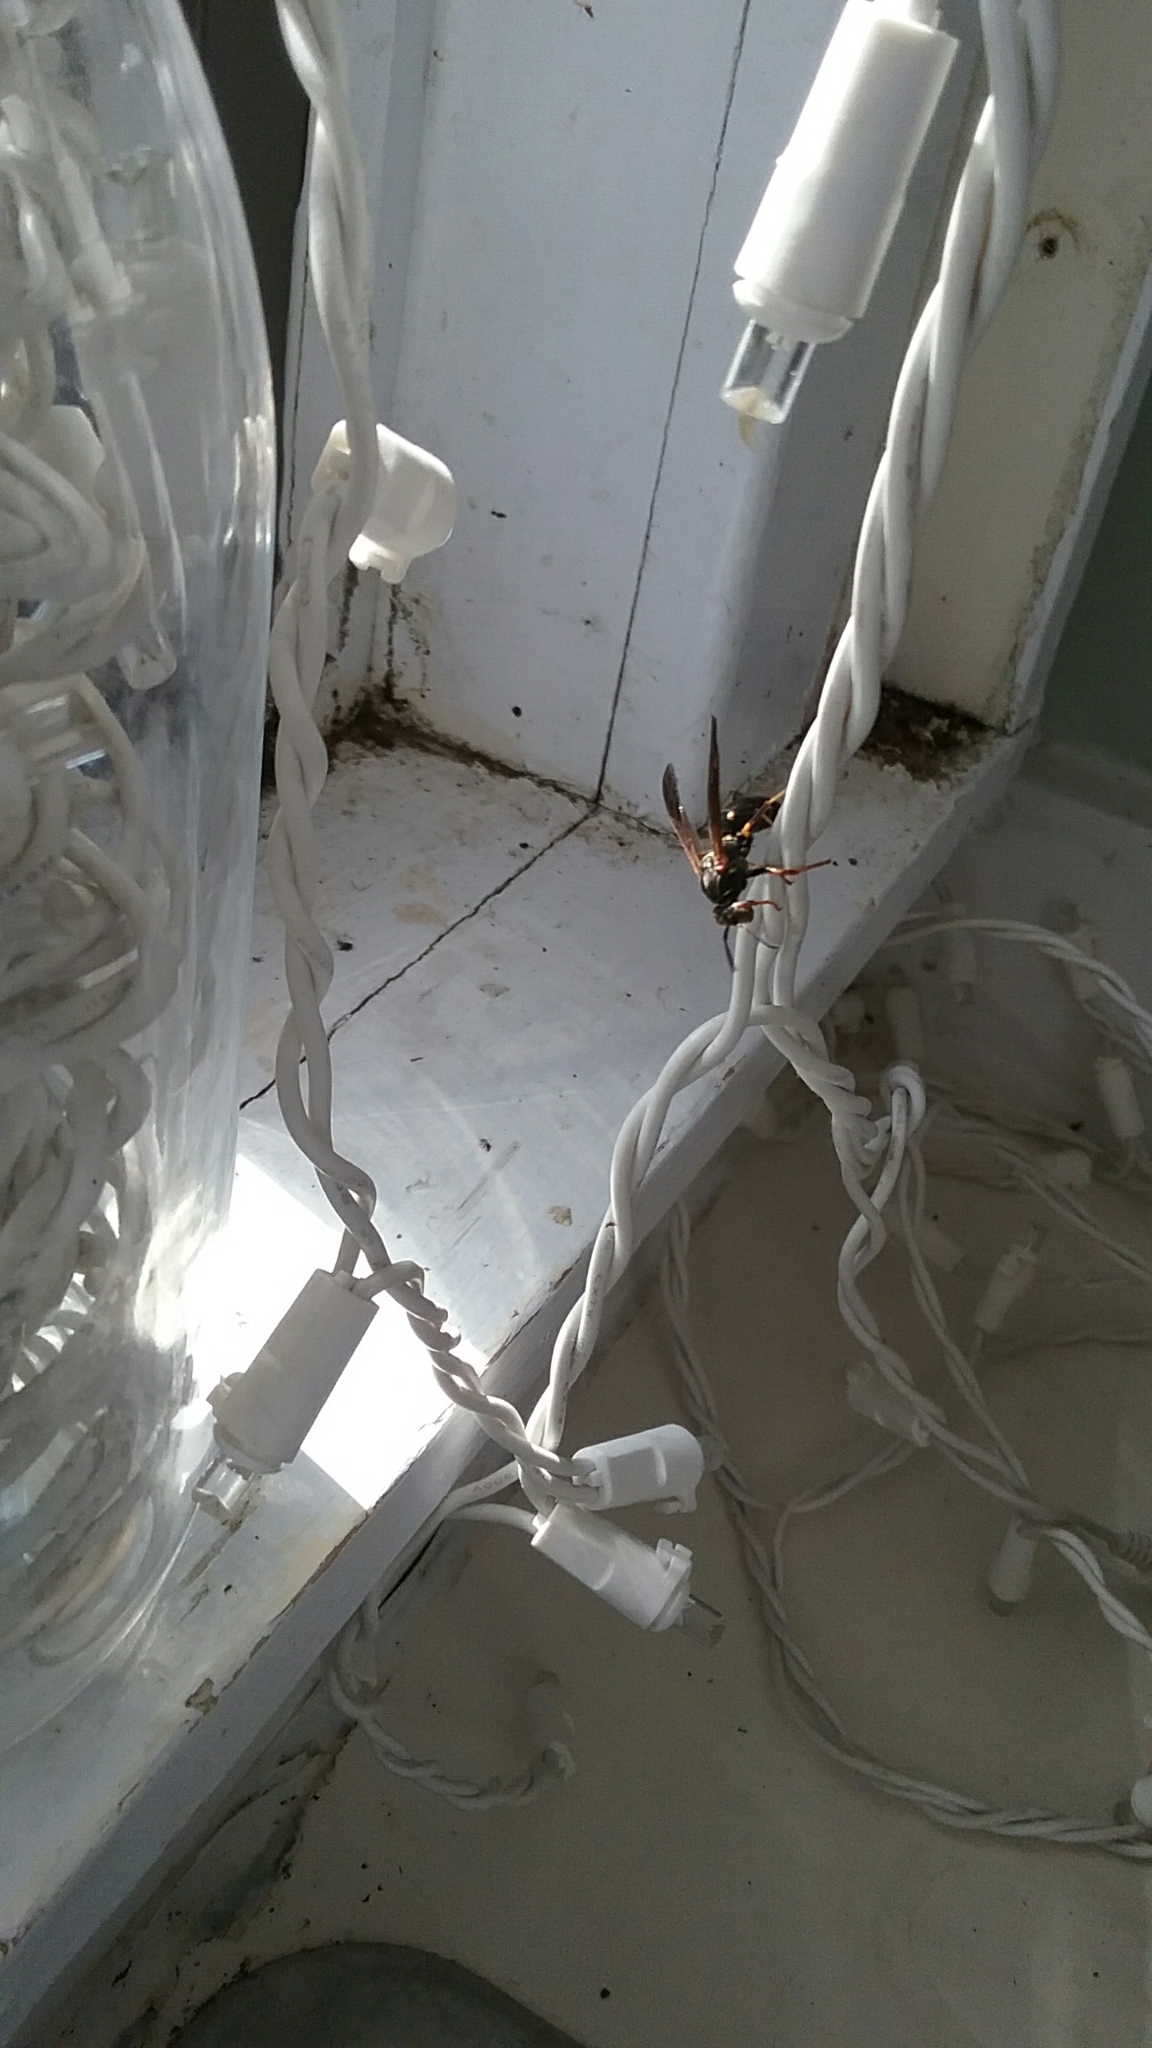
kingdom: Animalia
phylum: Arthropoda
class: Insecta
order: Hymenoptera
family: Eumenidae
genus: Polistes
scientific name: Polistes fuscatus
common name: Dark paper wasp
